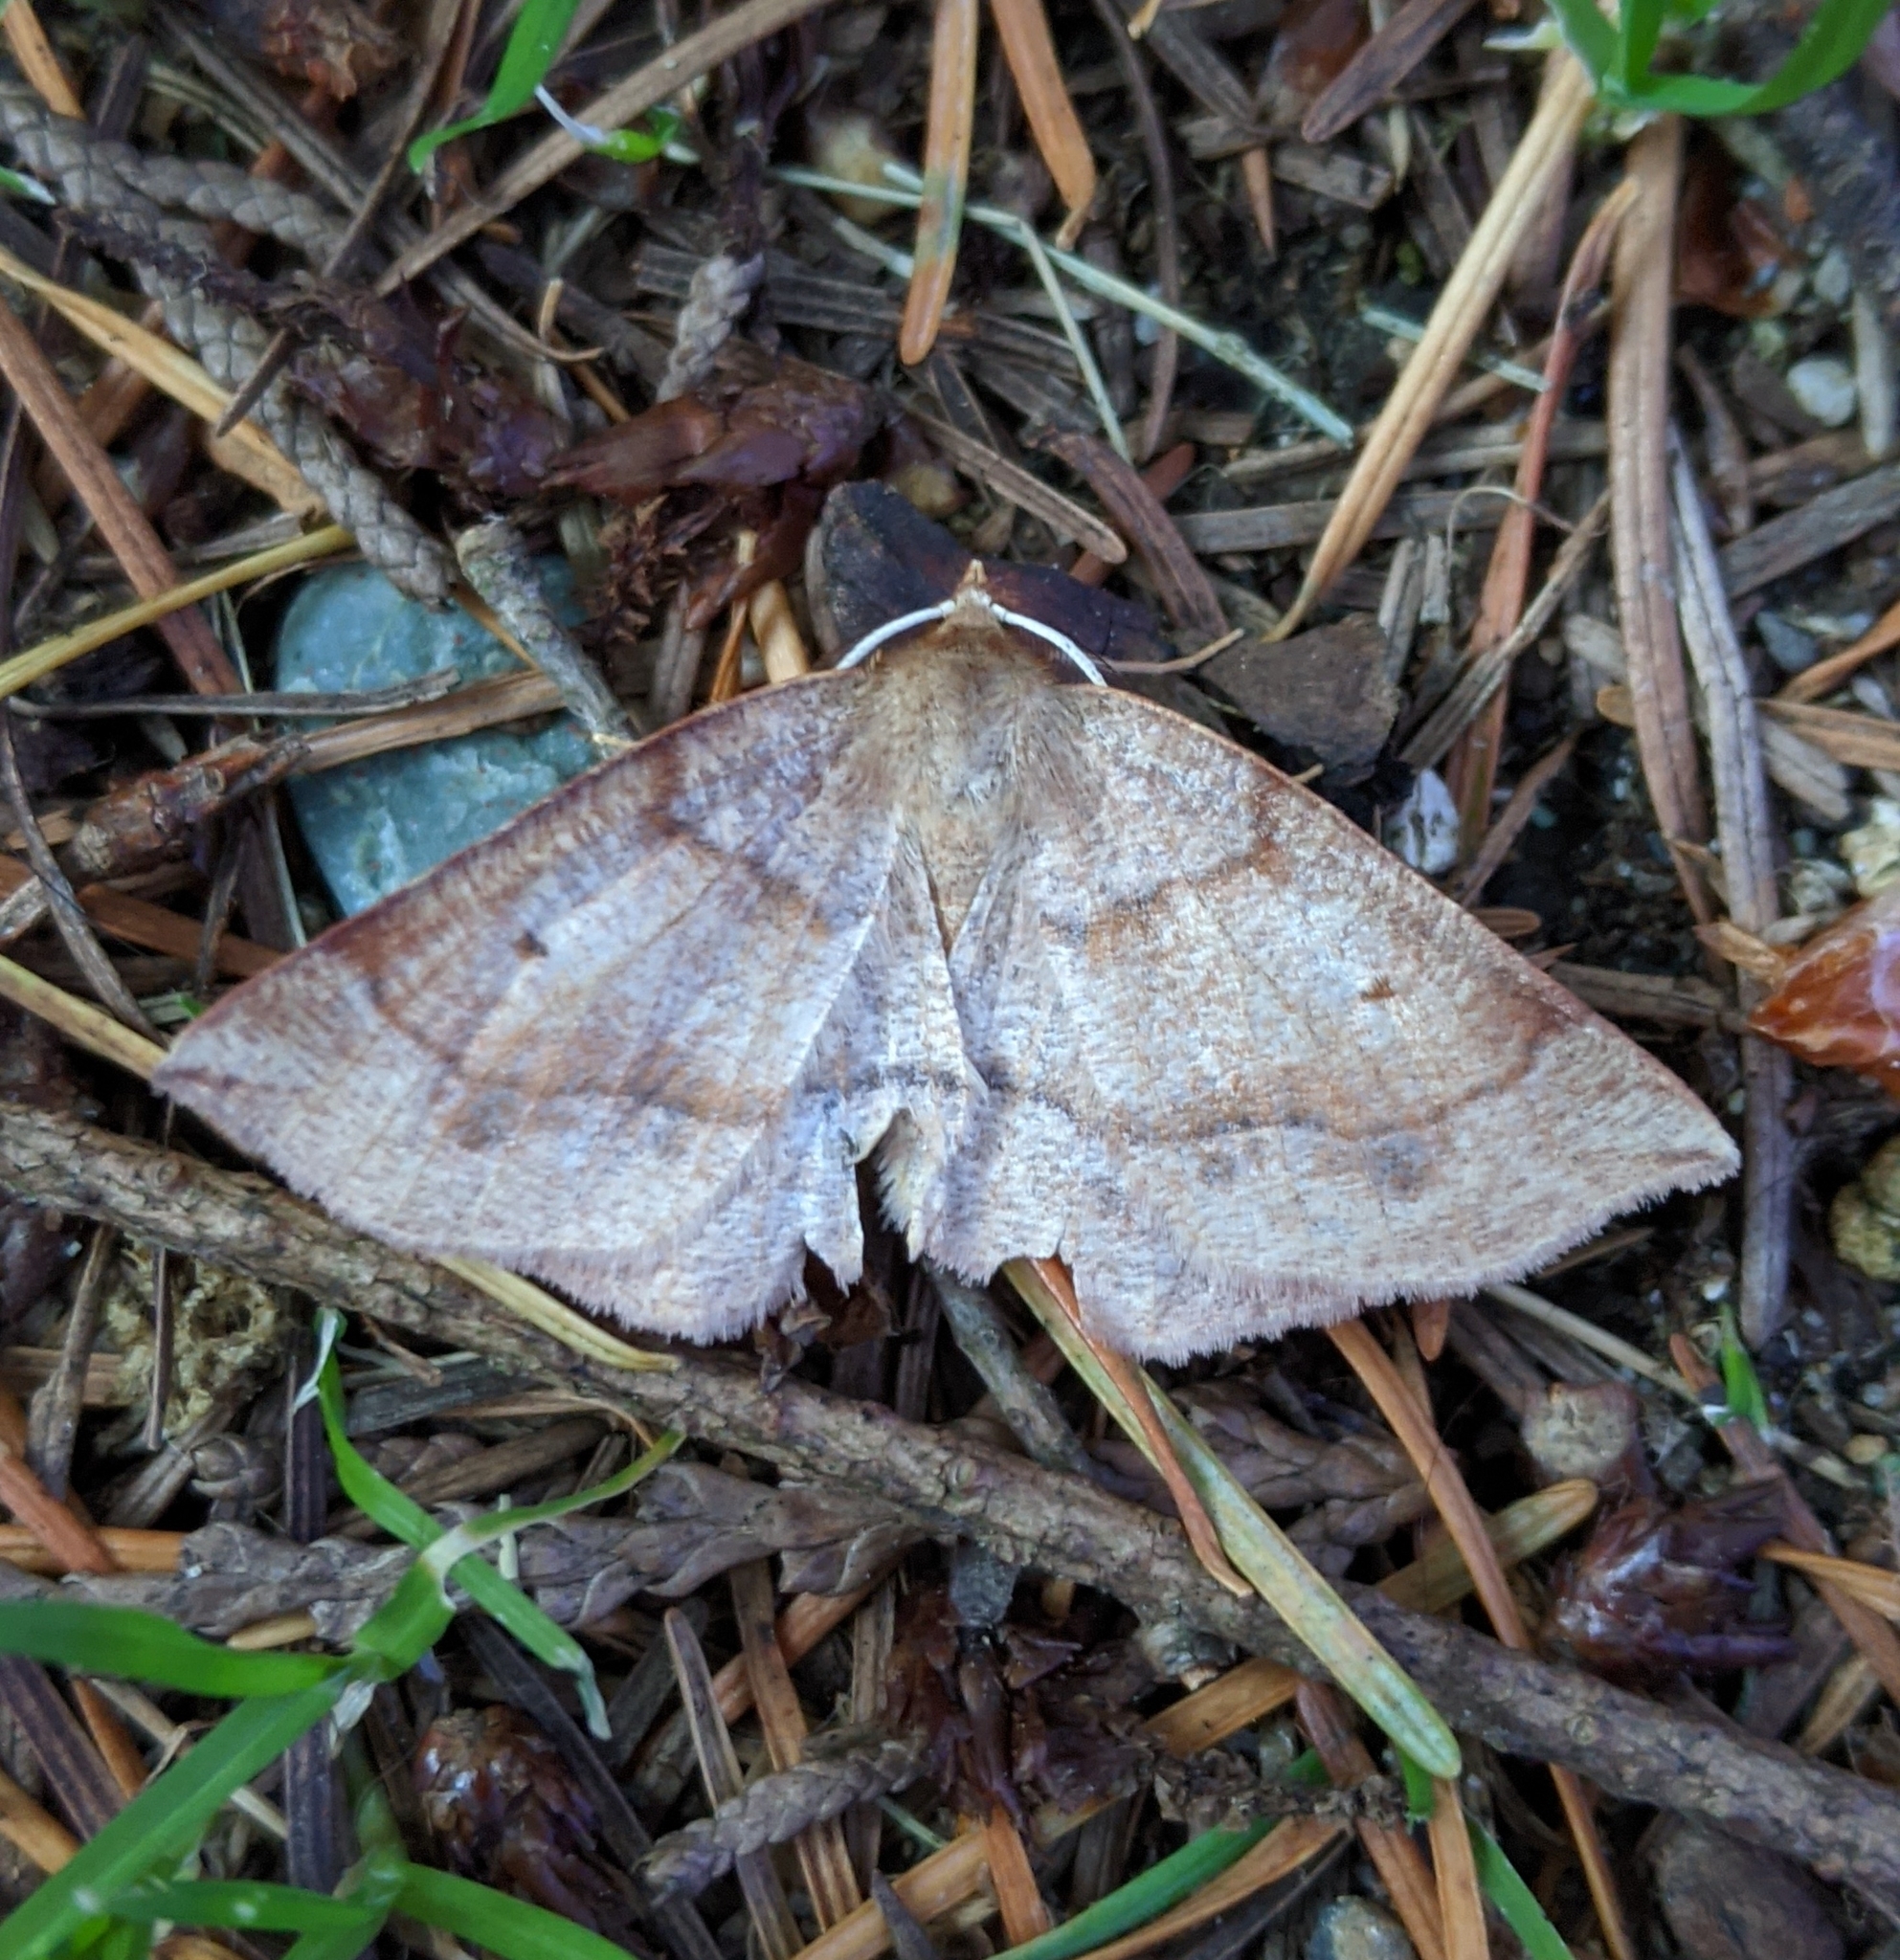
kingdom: Animalia
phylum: Arthropoda
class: Insecta
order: Lepidoptera
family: Geometridae
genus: Metarranthis
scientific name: Metarranthis duaria
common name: Ruddy metarranthis moth
